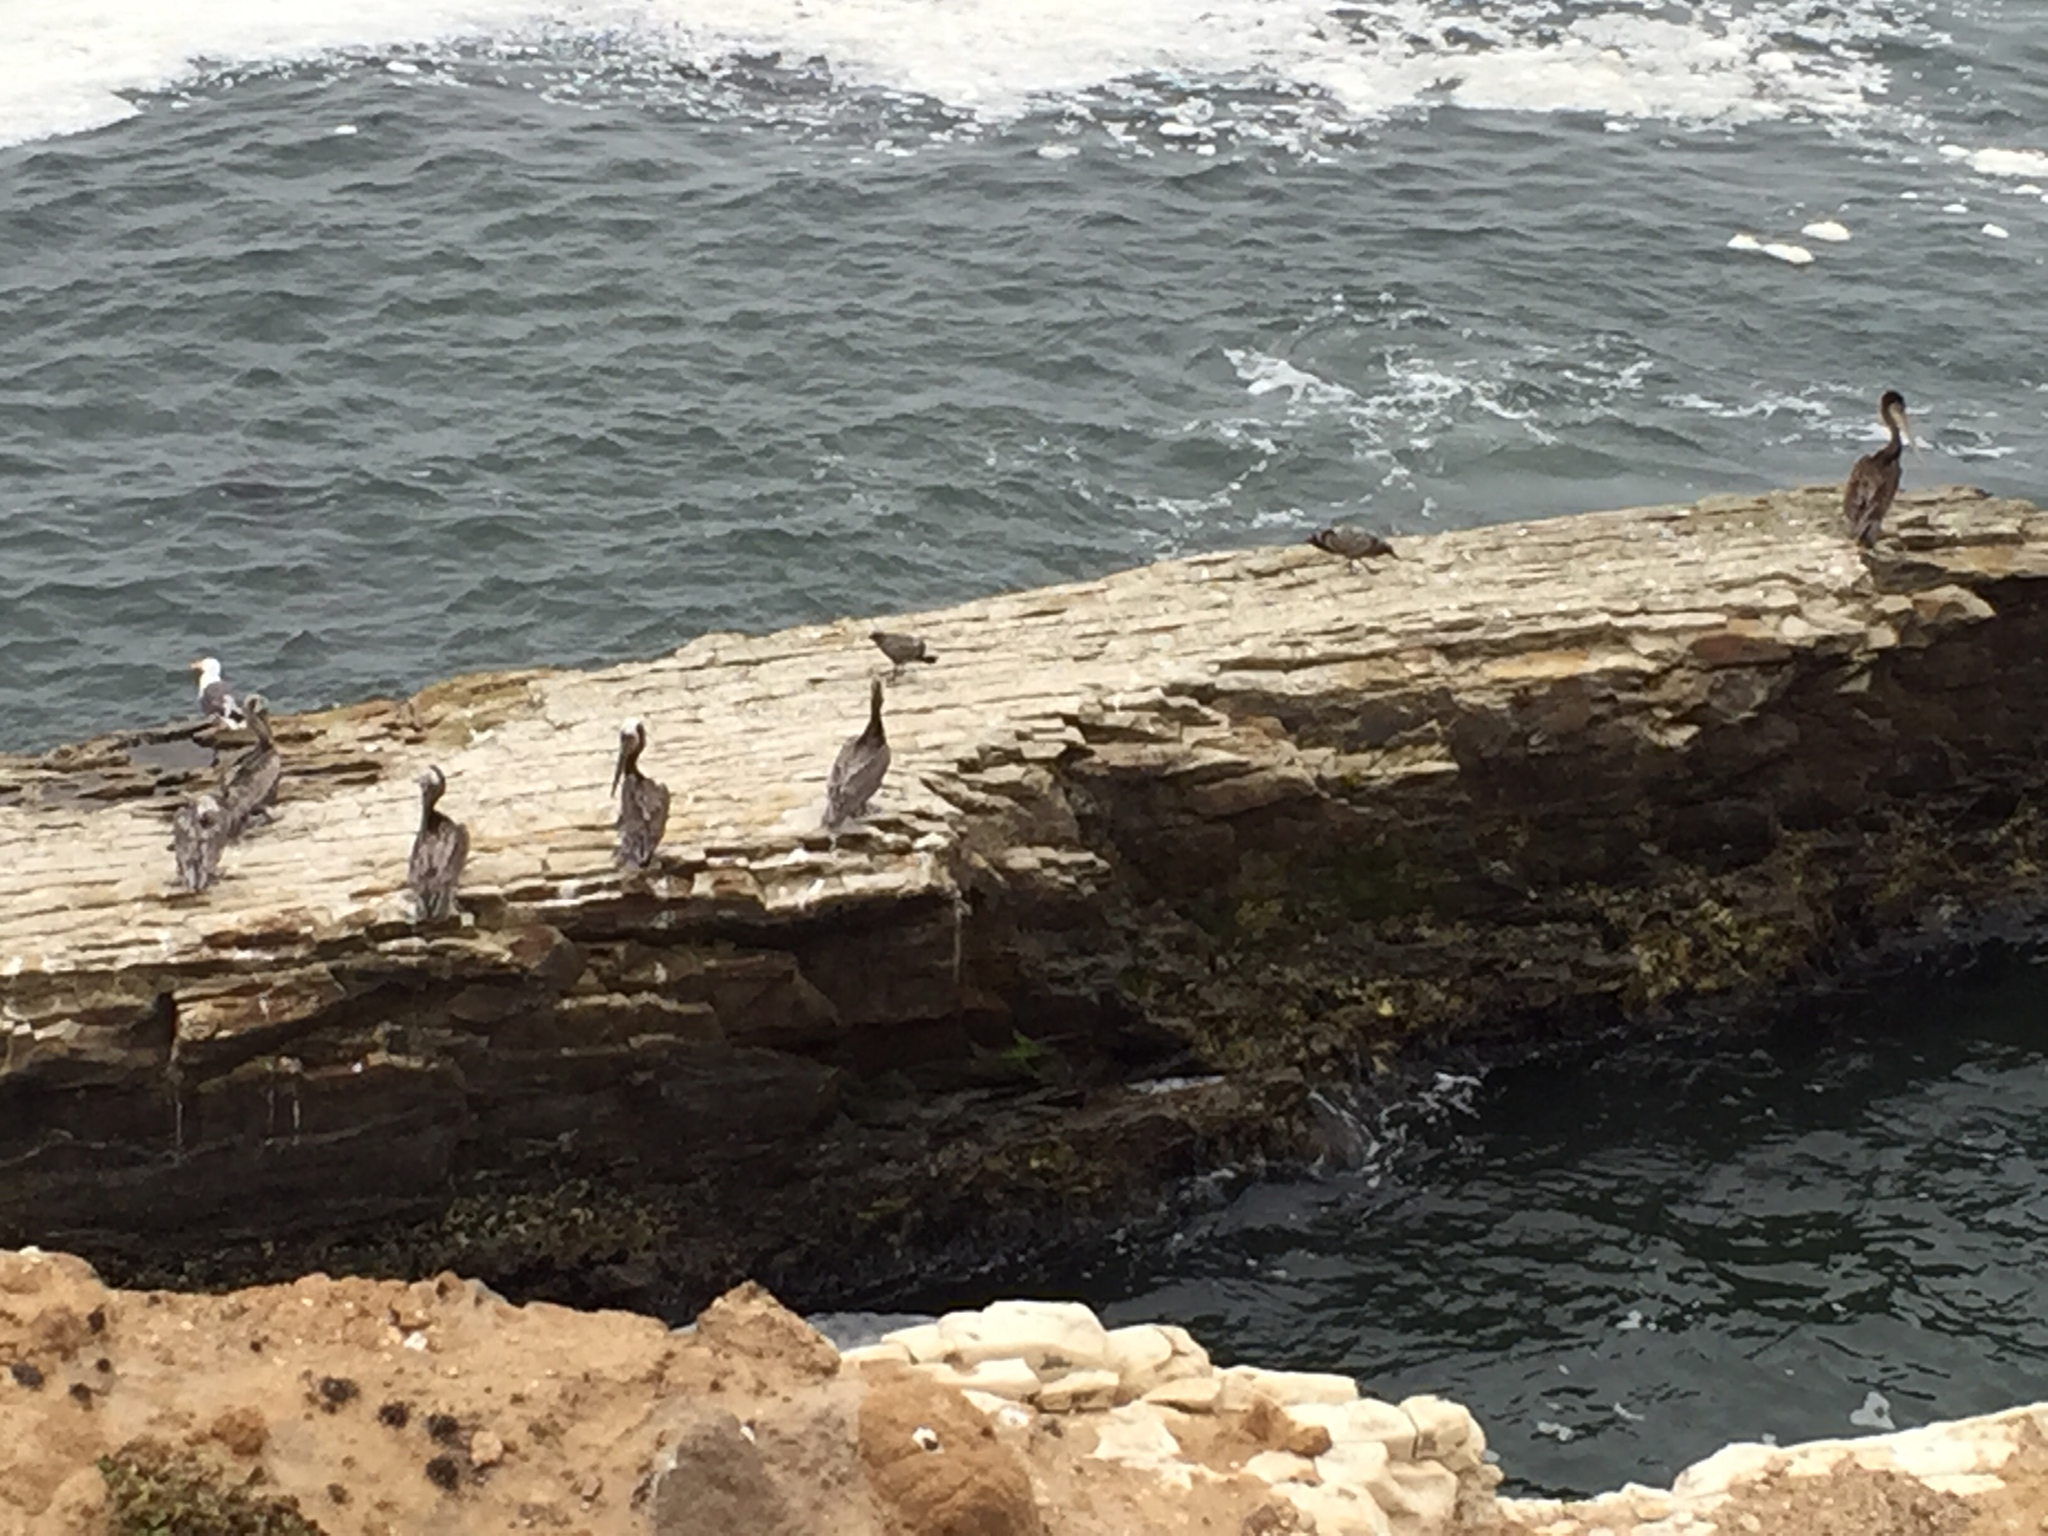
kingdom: Animalia
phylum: Chordata
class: Aves
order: Pelecaniformes
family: Pelecanidae
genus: Pelecanus
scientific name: Pelecanus occidentalis
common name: Brown pelican
